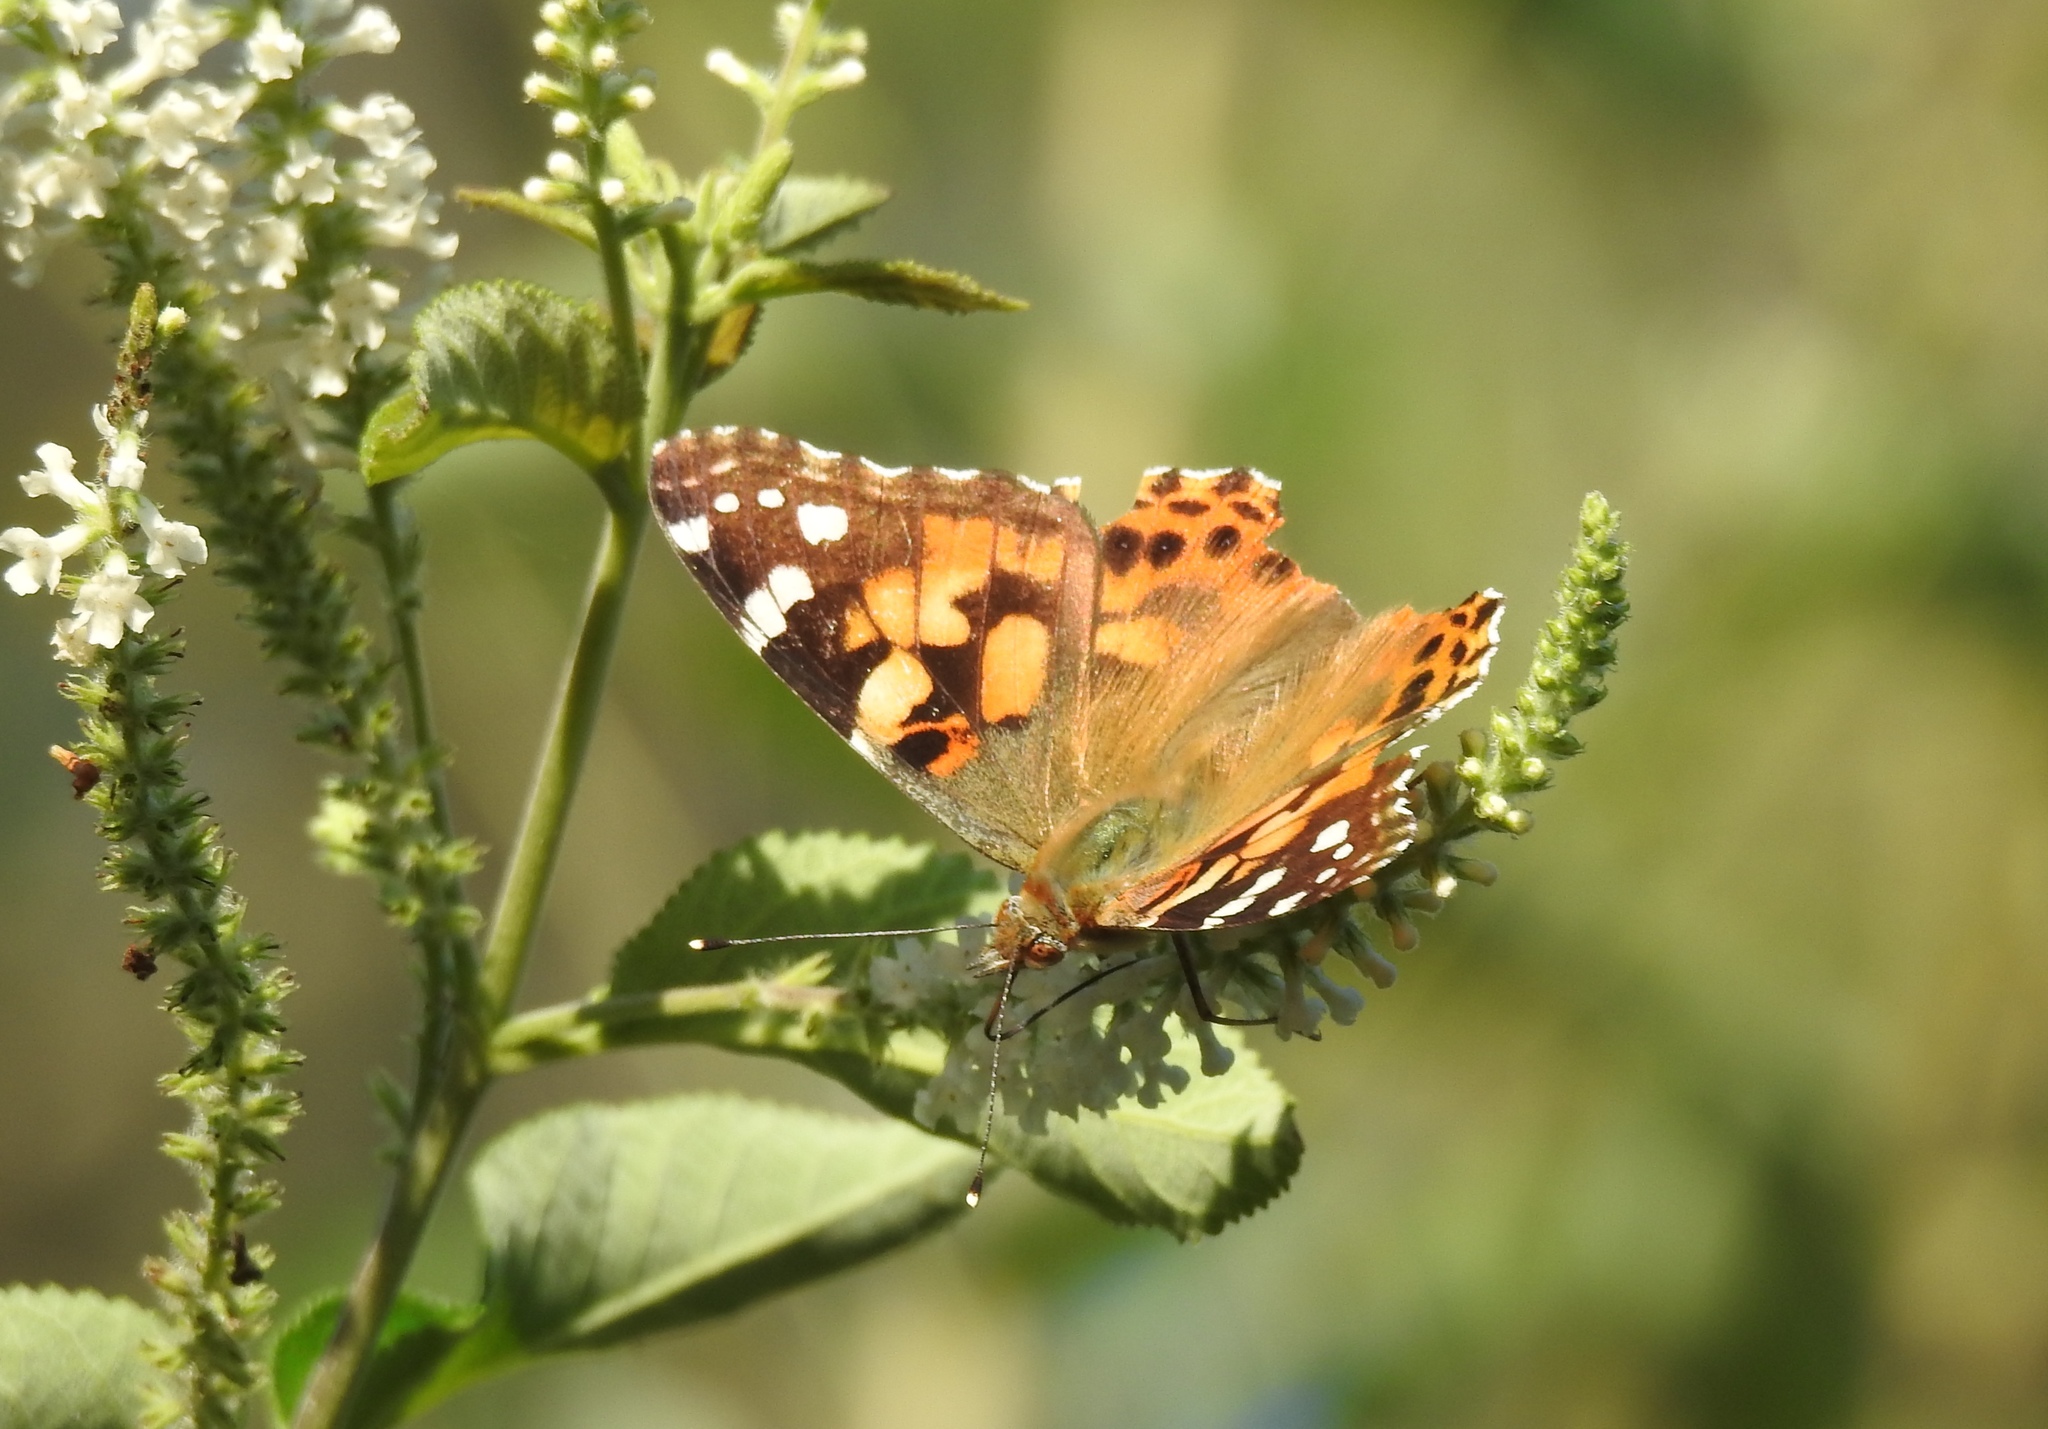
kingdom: Animalia
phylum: Arthropoda
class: Insecta
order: Lepidoptera
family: Nymphalidae
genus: Vanessa
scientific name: Vanessa cardui
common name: Painted lady
